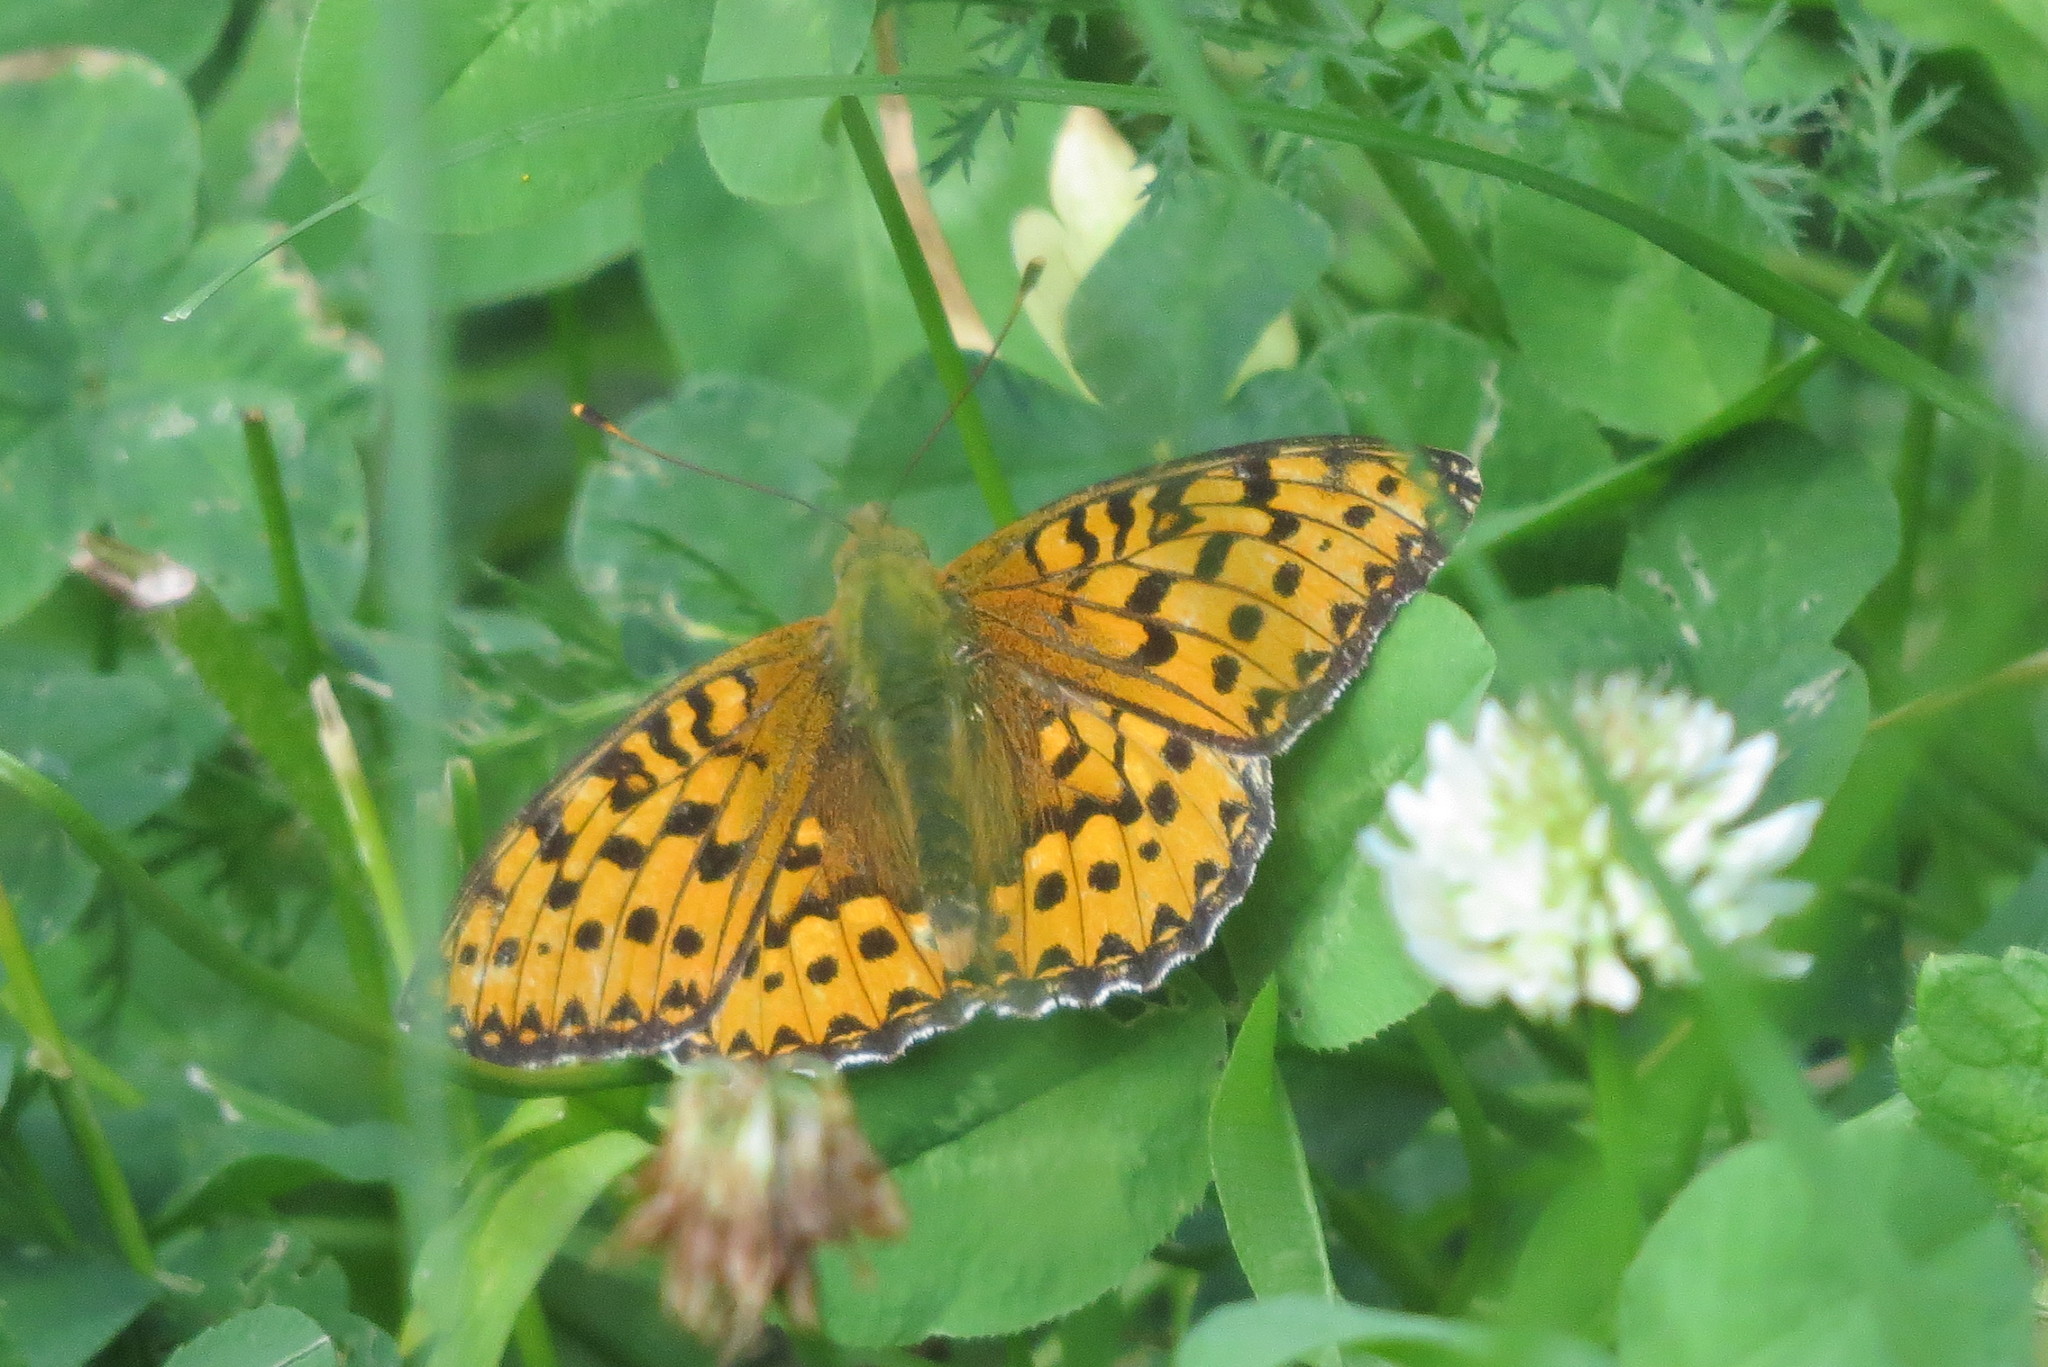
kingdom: Animalia
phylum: Arthropoda
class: Insecta
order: Lepidoptera
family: Nymphalidae
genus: Speyeria
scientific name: Speyeria aglaja
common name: Dark green fritillary
